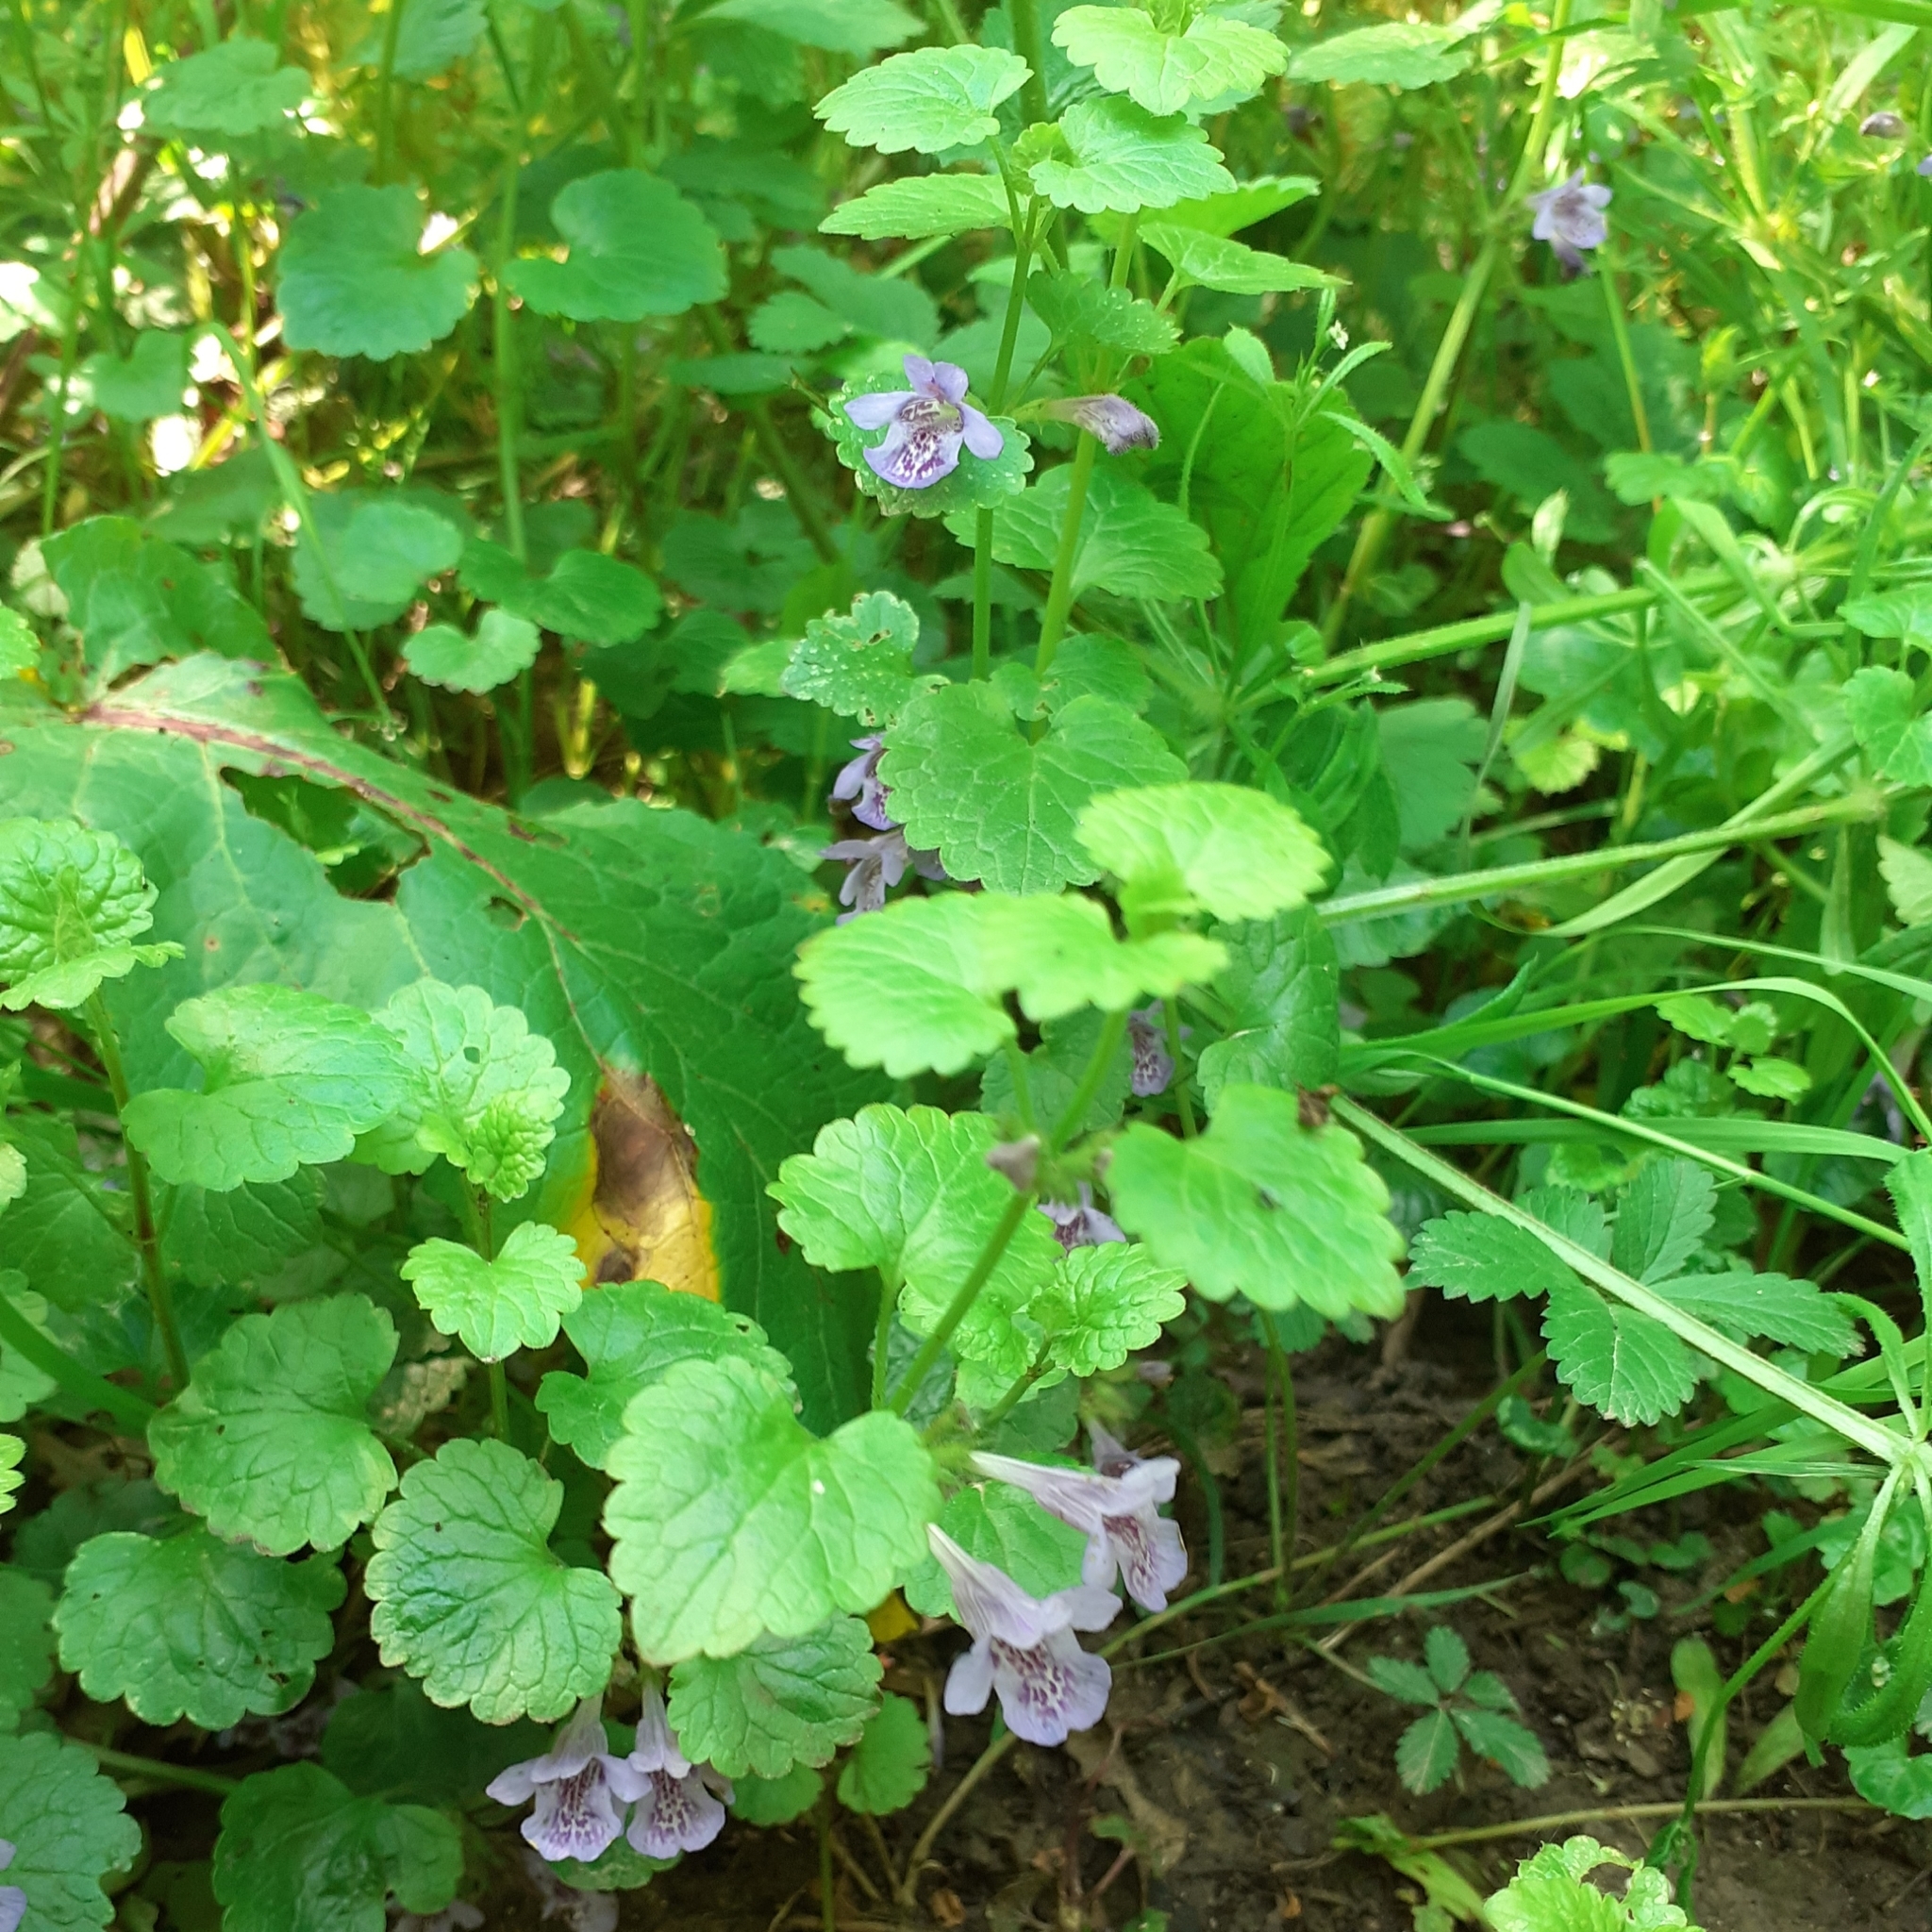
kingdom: Plantae
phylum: Tracheophyta
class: Magnoliopsida
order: Lamiales
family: Lamiaceae
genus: Glechoma
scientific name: Glechoma hederacea
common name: Ground ivy
